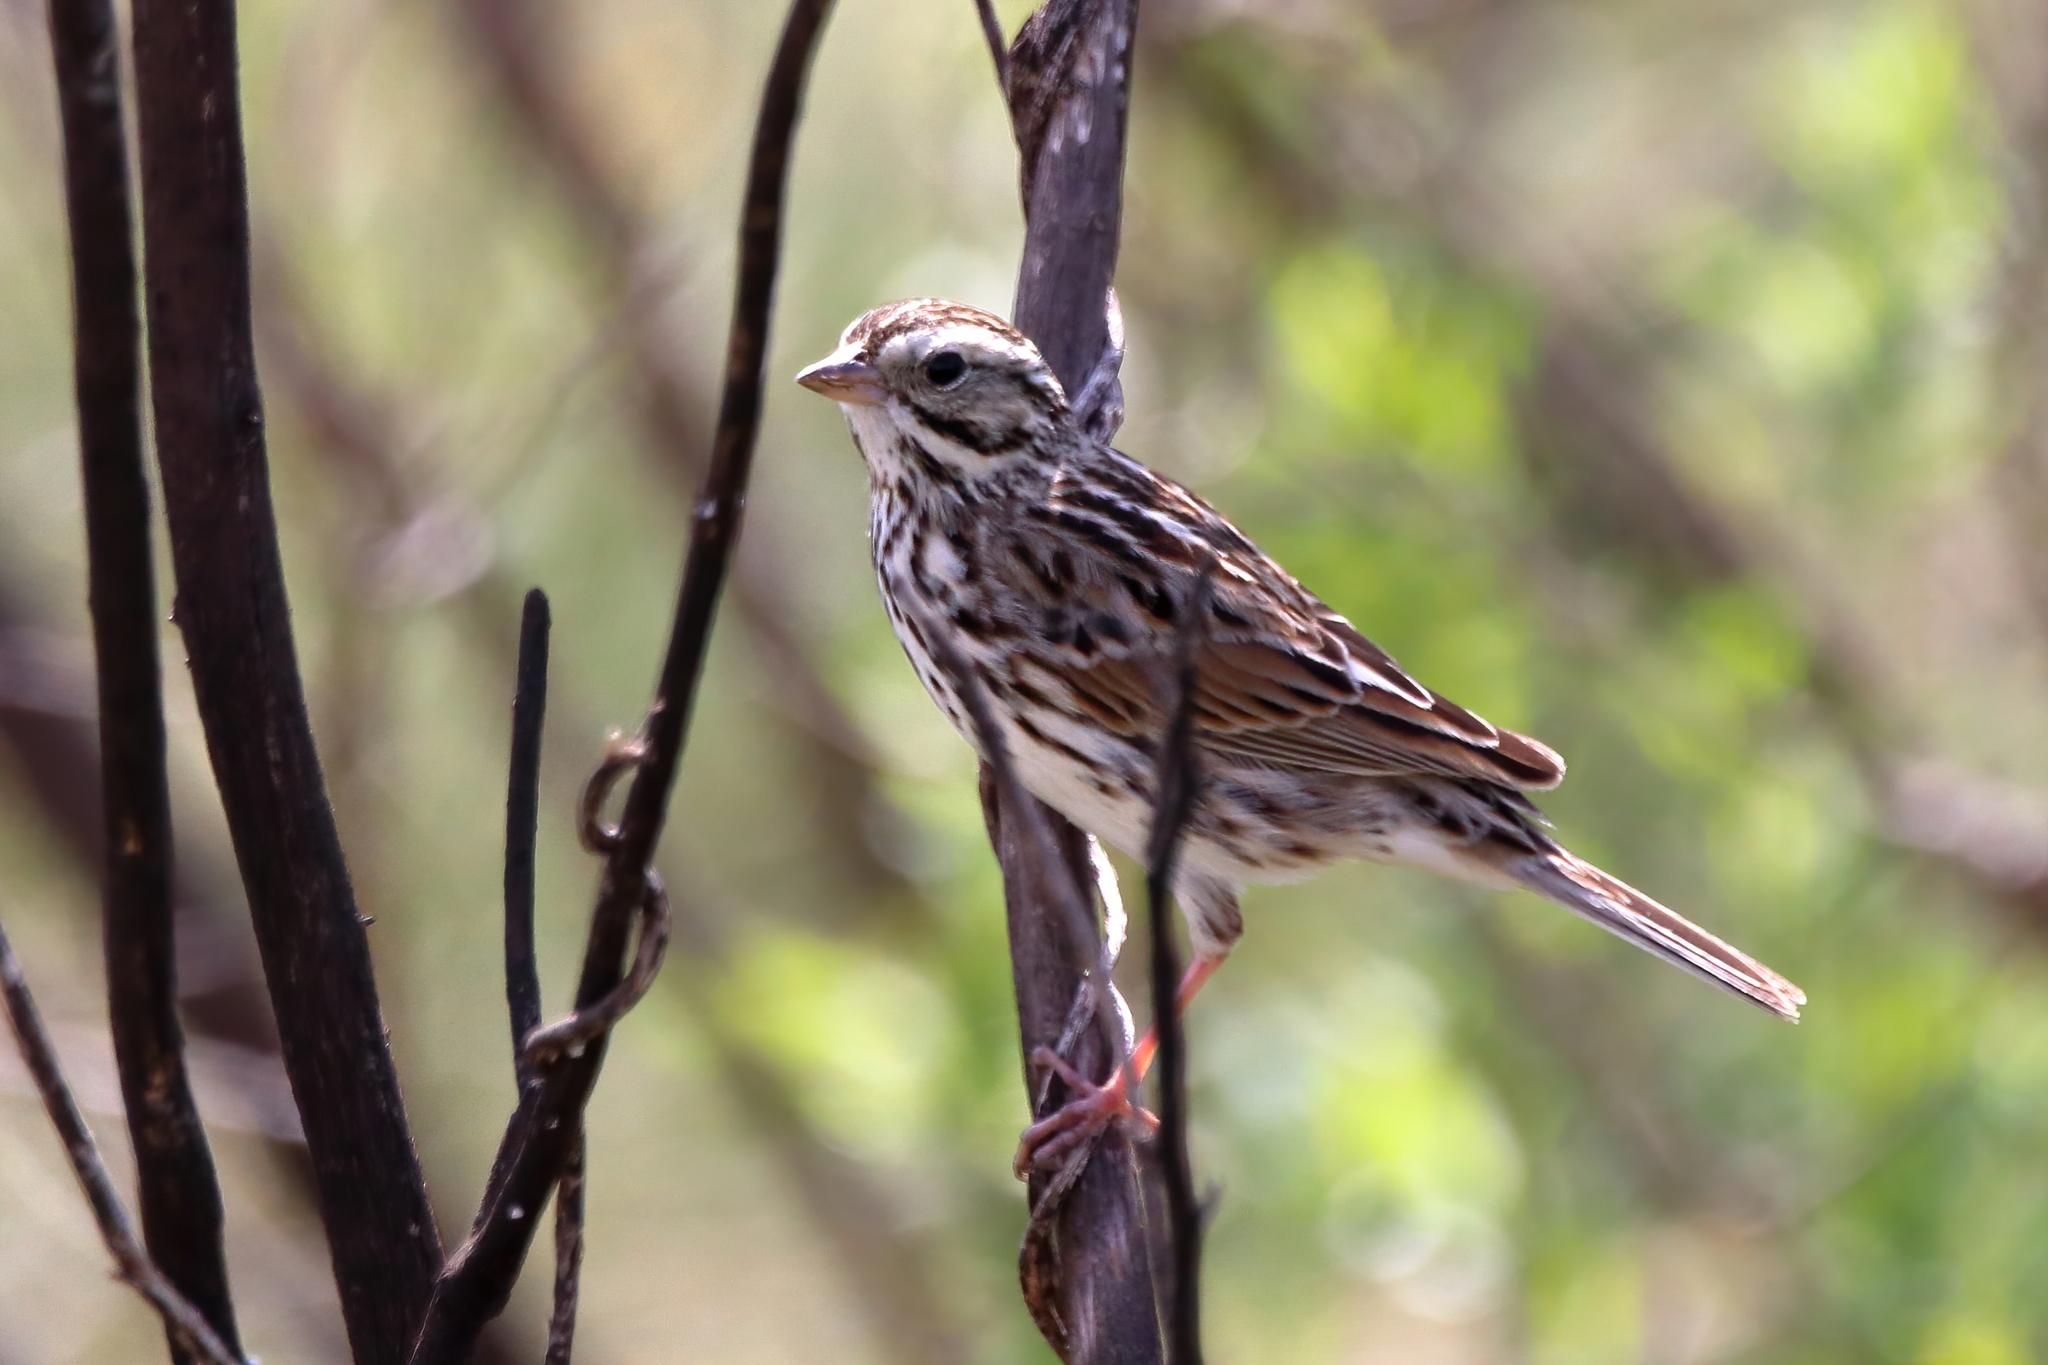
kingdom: Animalia
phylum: Chordata
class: Aves
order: Passeriformes
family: Passerellidae
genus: Passerculus
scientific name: Passerculus sandwichensis
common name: Savannah sparrow
